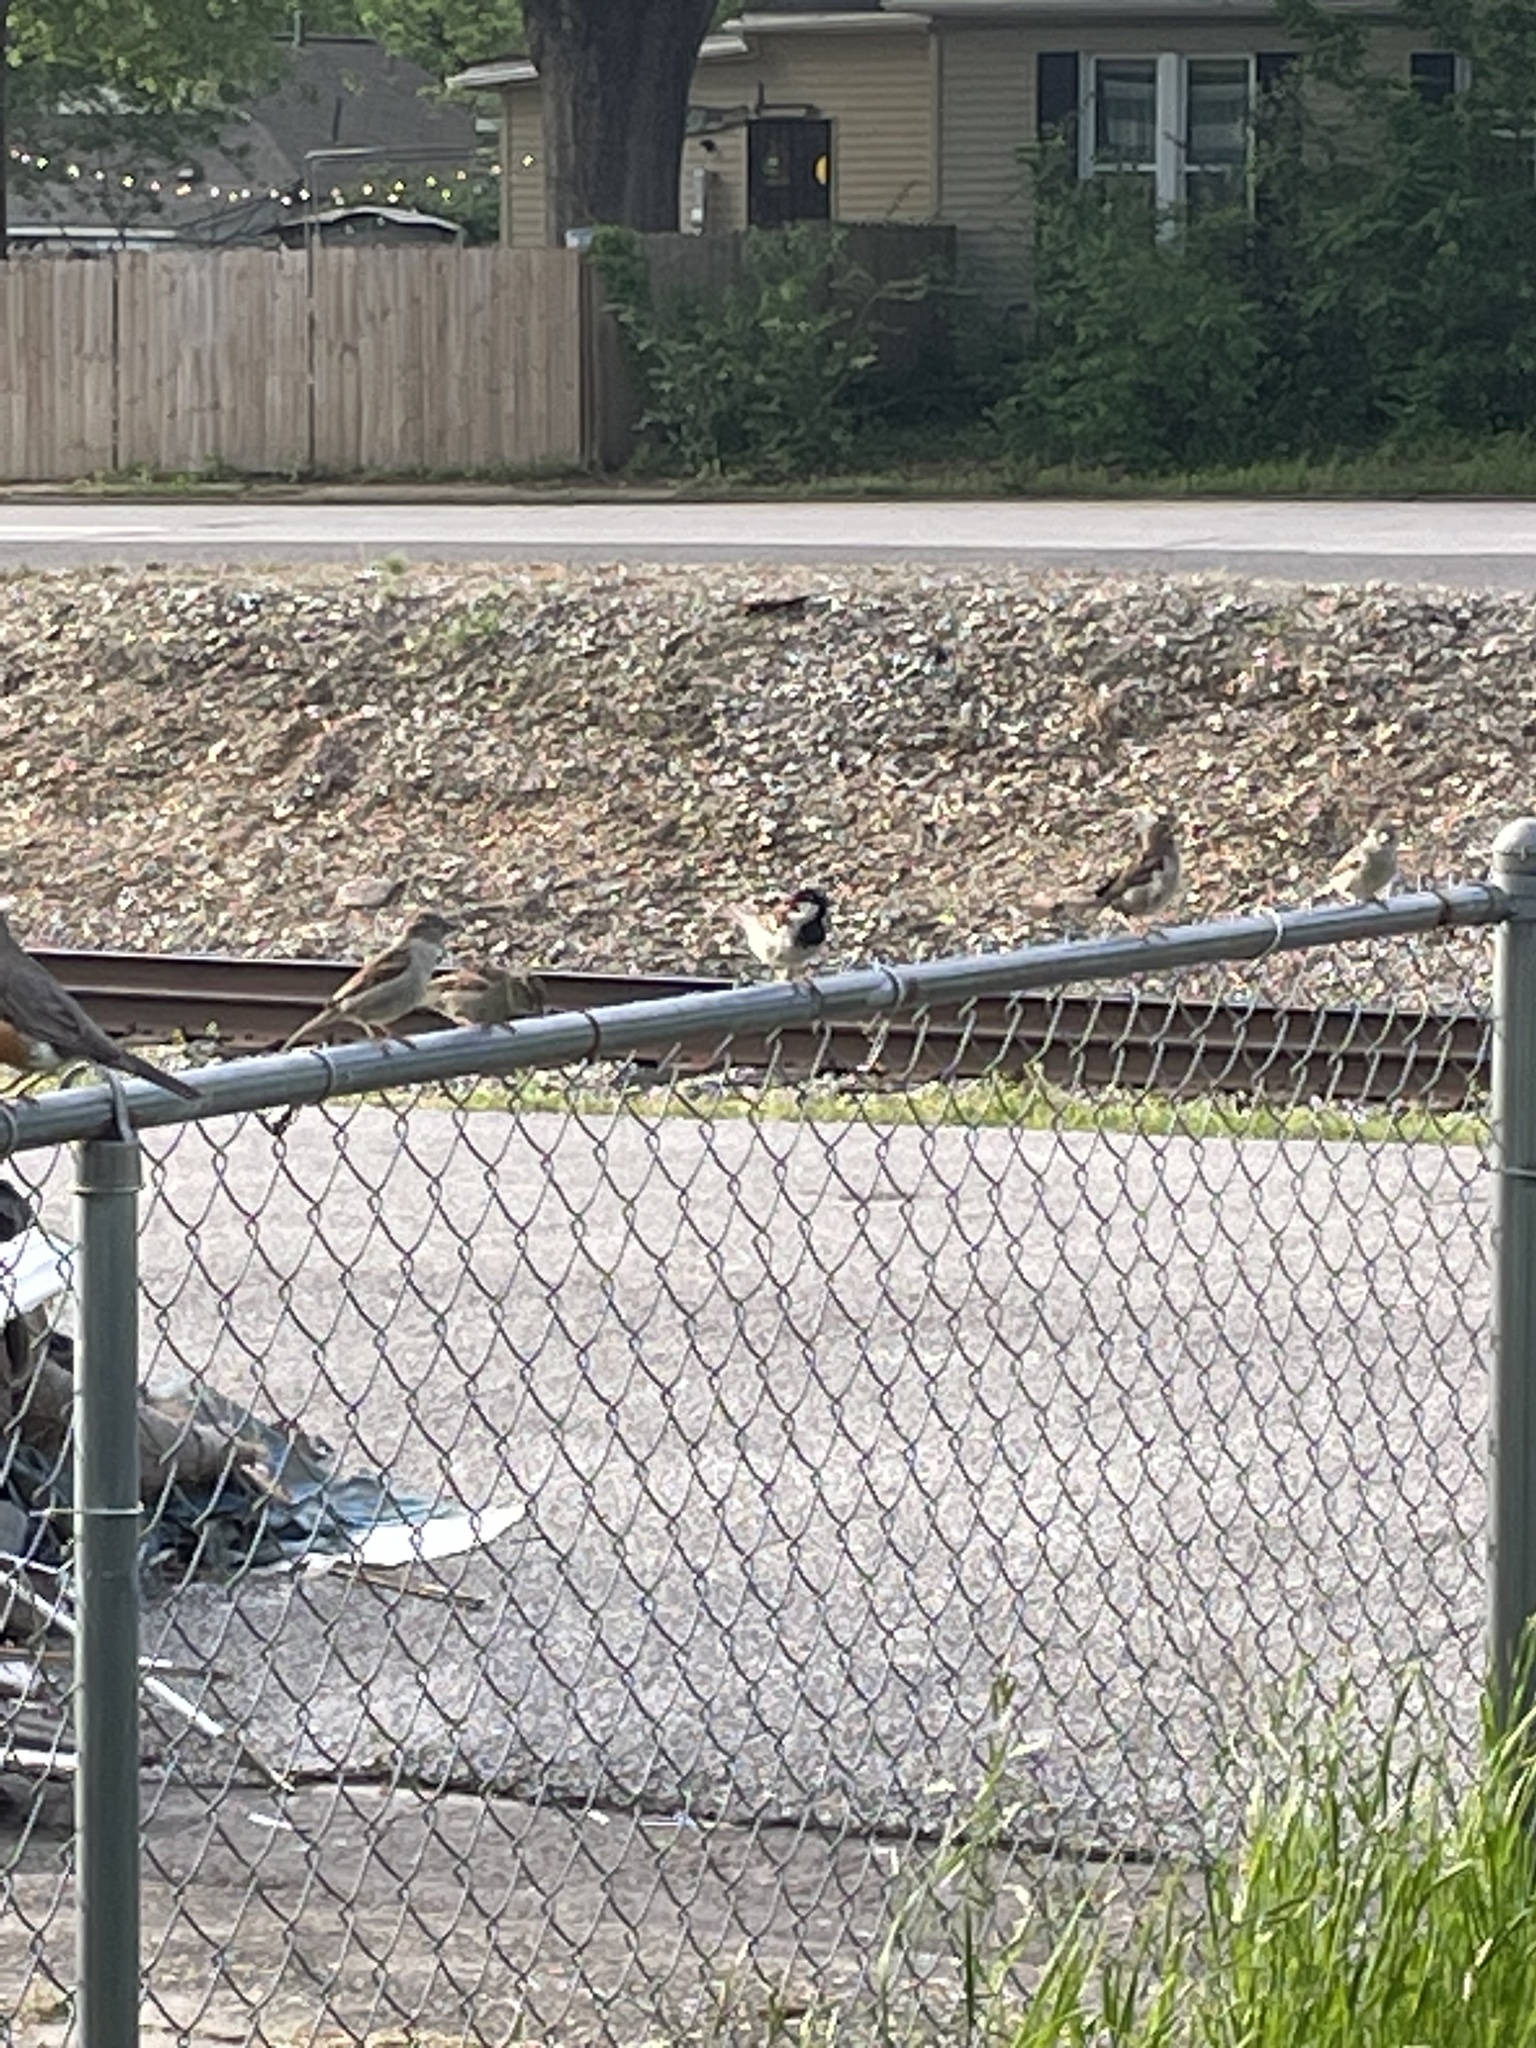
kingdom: Animalia
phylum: Chordata
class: Aves
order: Passeriformes
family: Passeridae
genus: Passer
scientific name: Passer domesticus
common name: House sparrow
